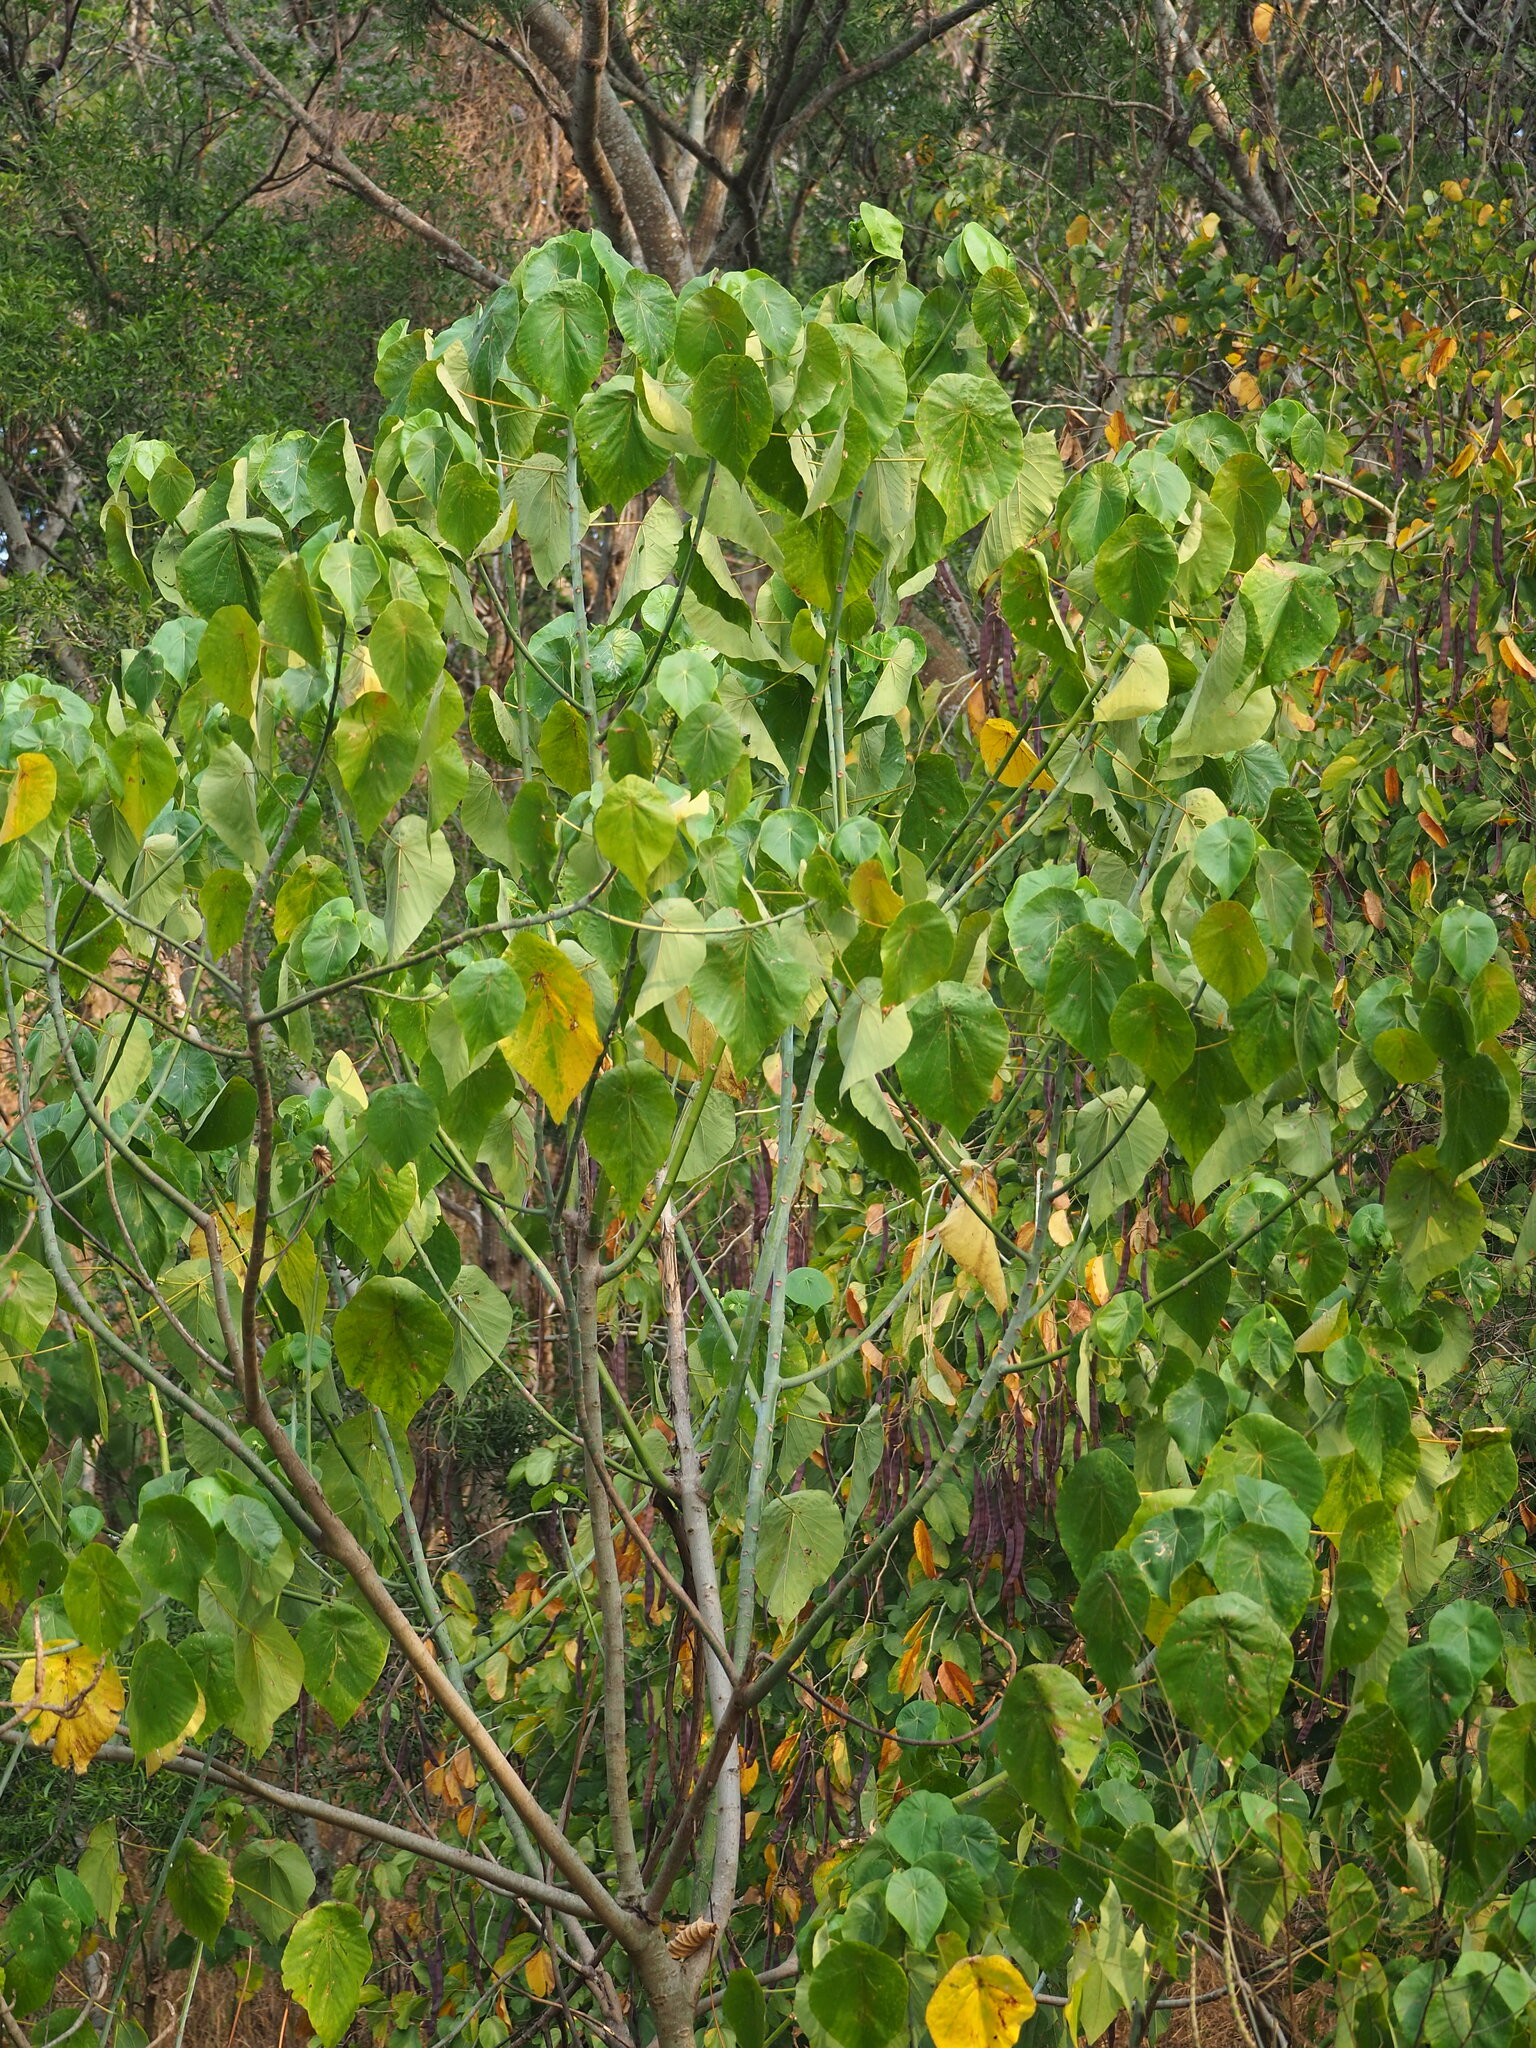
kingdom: Plantae
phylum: Tracheophyta
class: Magnoliopsida
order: Malpighiales
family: Euphorbiaceae
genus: Macaranga
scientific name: Macaranga tanarius
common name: Parasol leaf tree
